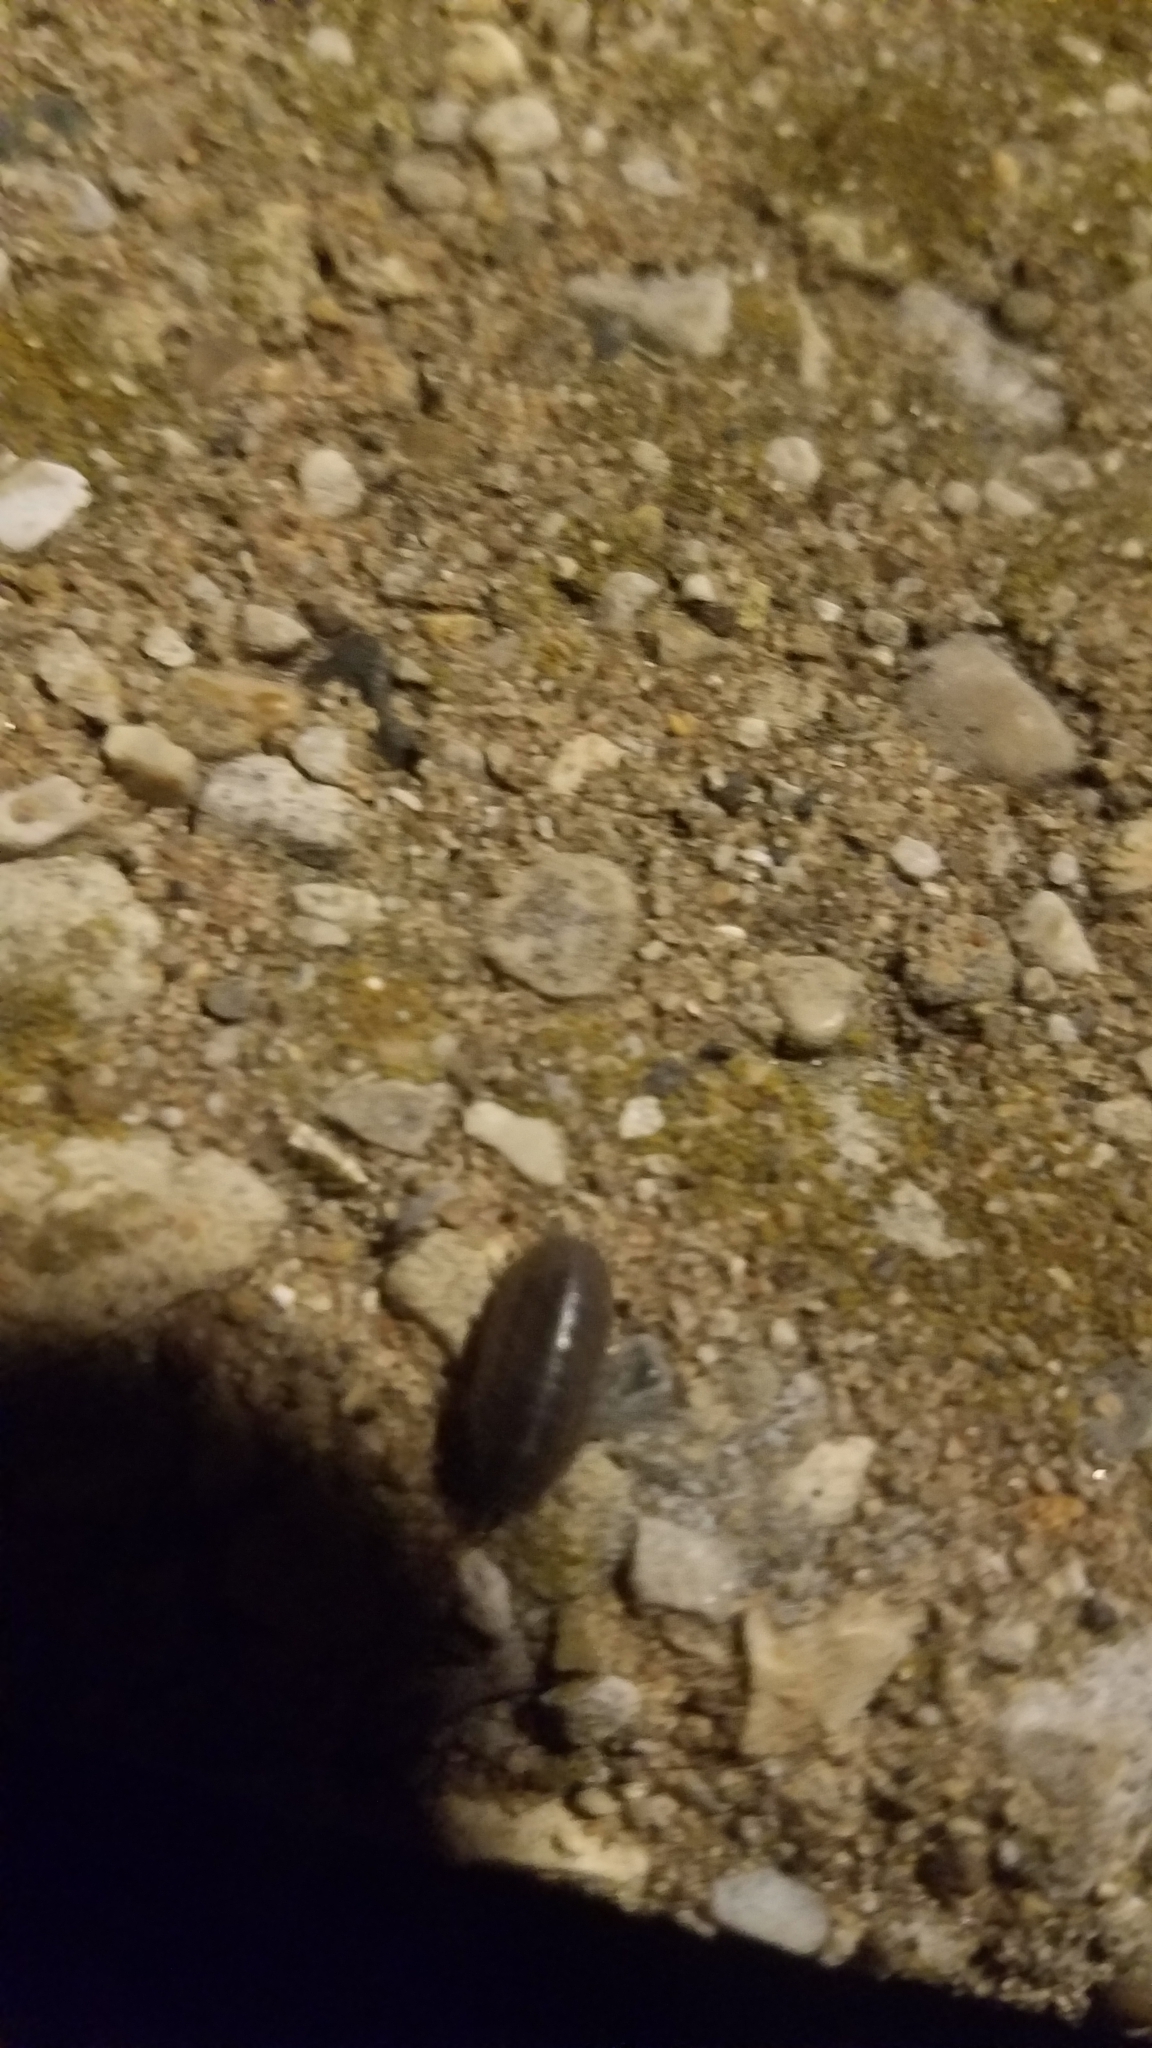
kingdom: Animalia
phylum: Arthropoda
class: Malacostraca
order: Isopoda
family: Armadillidiidae
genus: Armadillidium
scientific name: Armadillidium vulgare
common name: Common pill woodlouse
